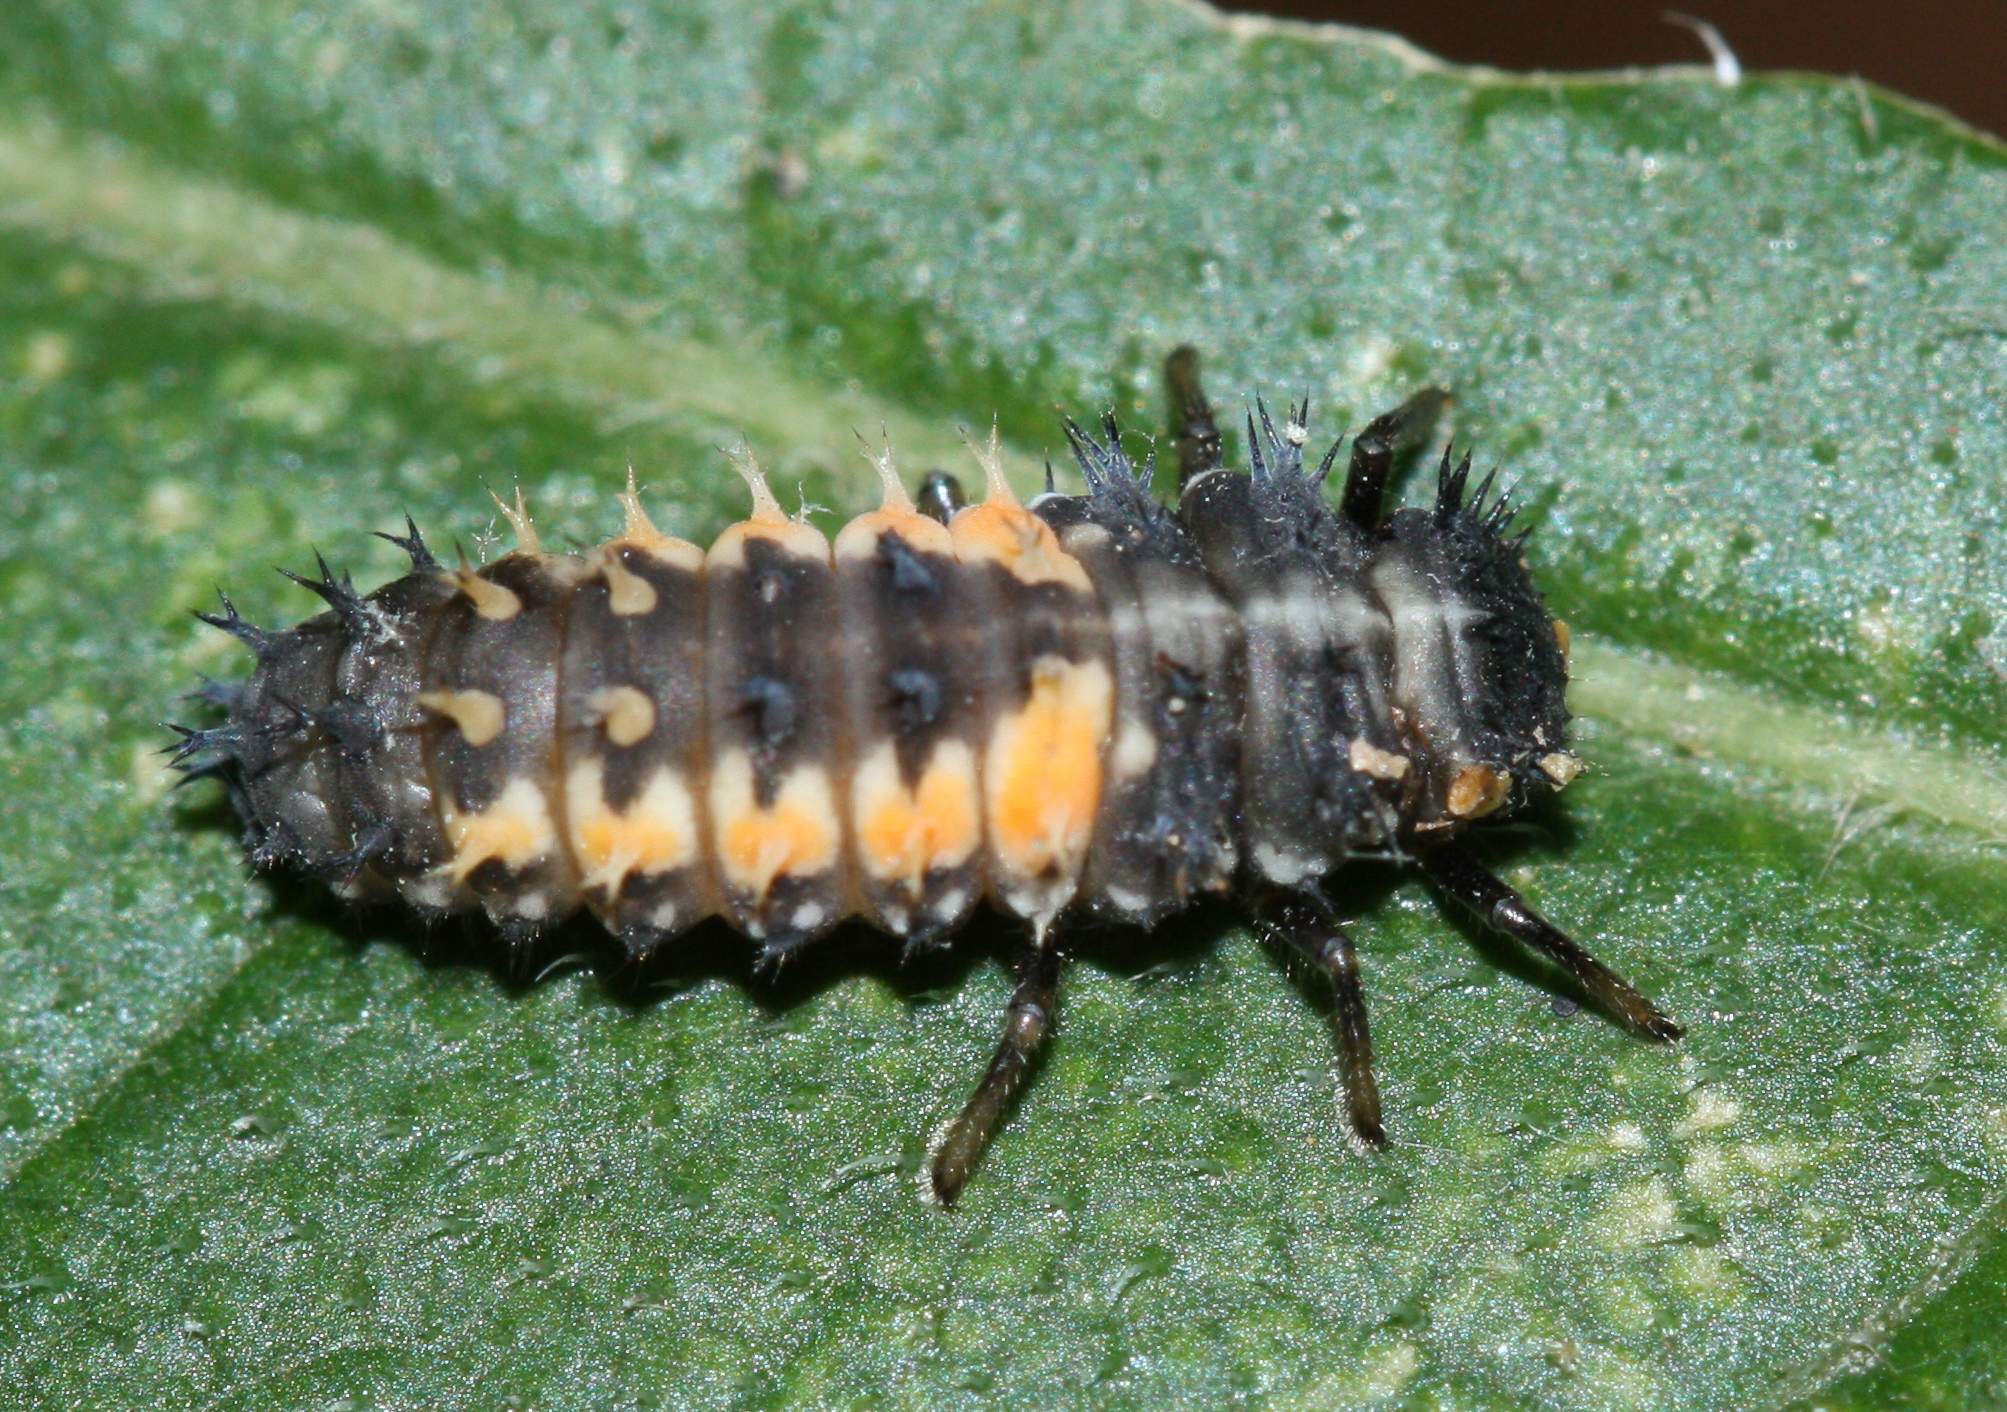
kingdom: Animalia
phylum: Arthropoda
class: Insecta
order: Coleoptera
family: Coccinellidae
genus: Harmonia
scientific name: Harmonia axyridis
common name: Harlequin ladybird
